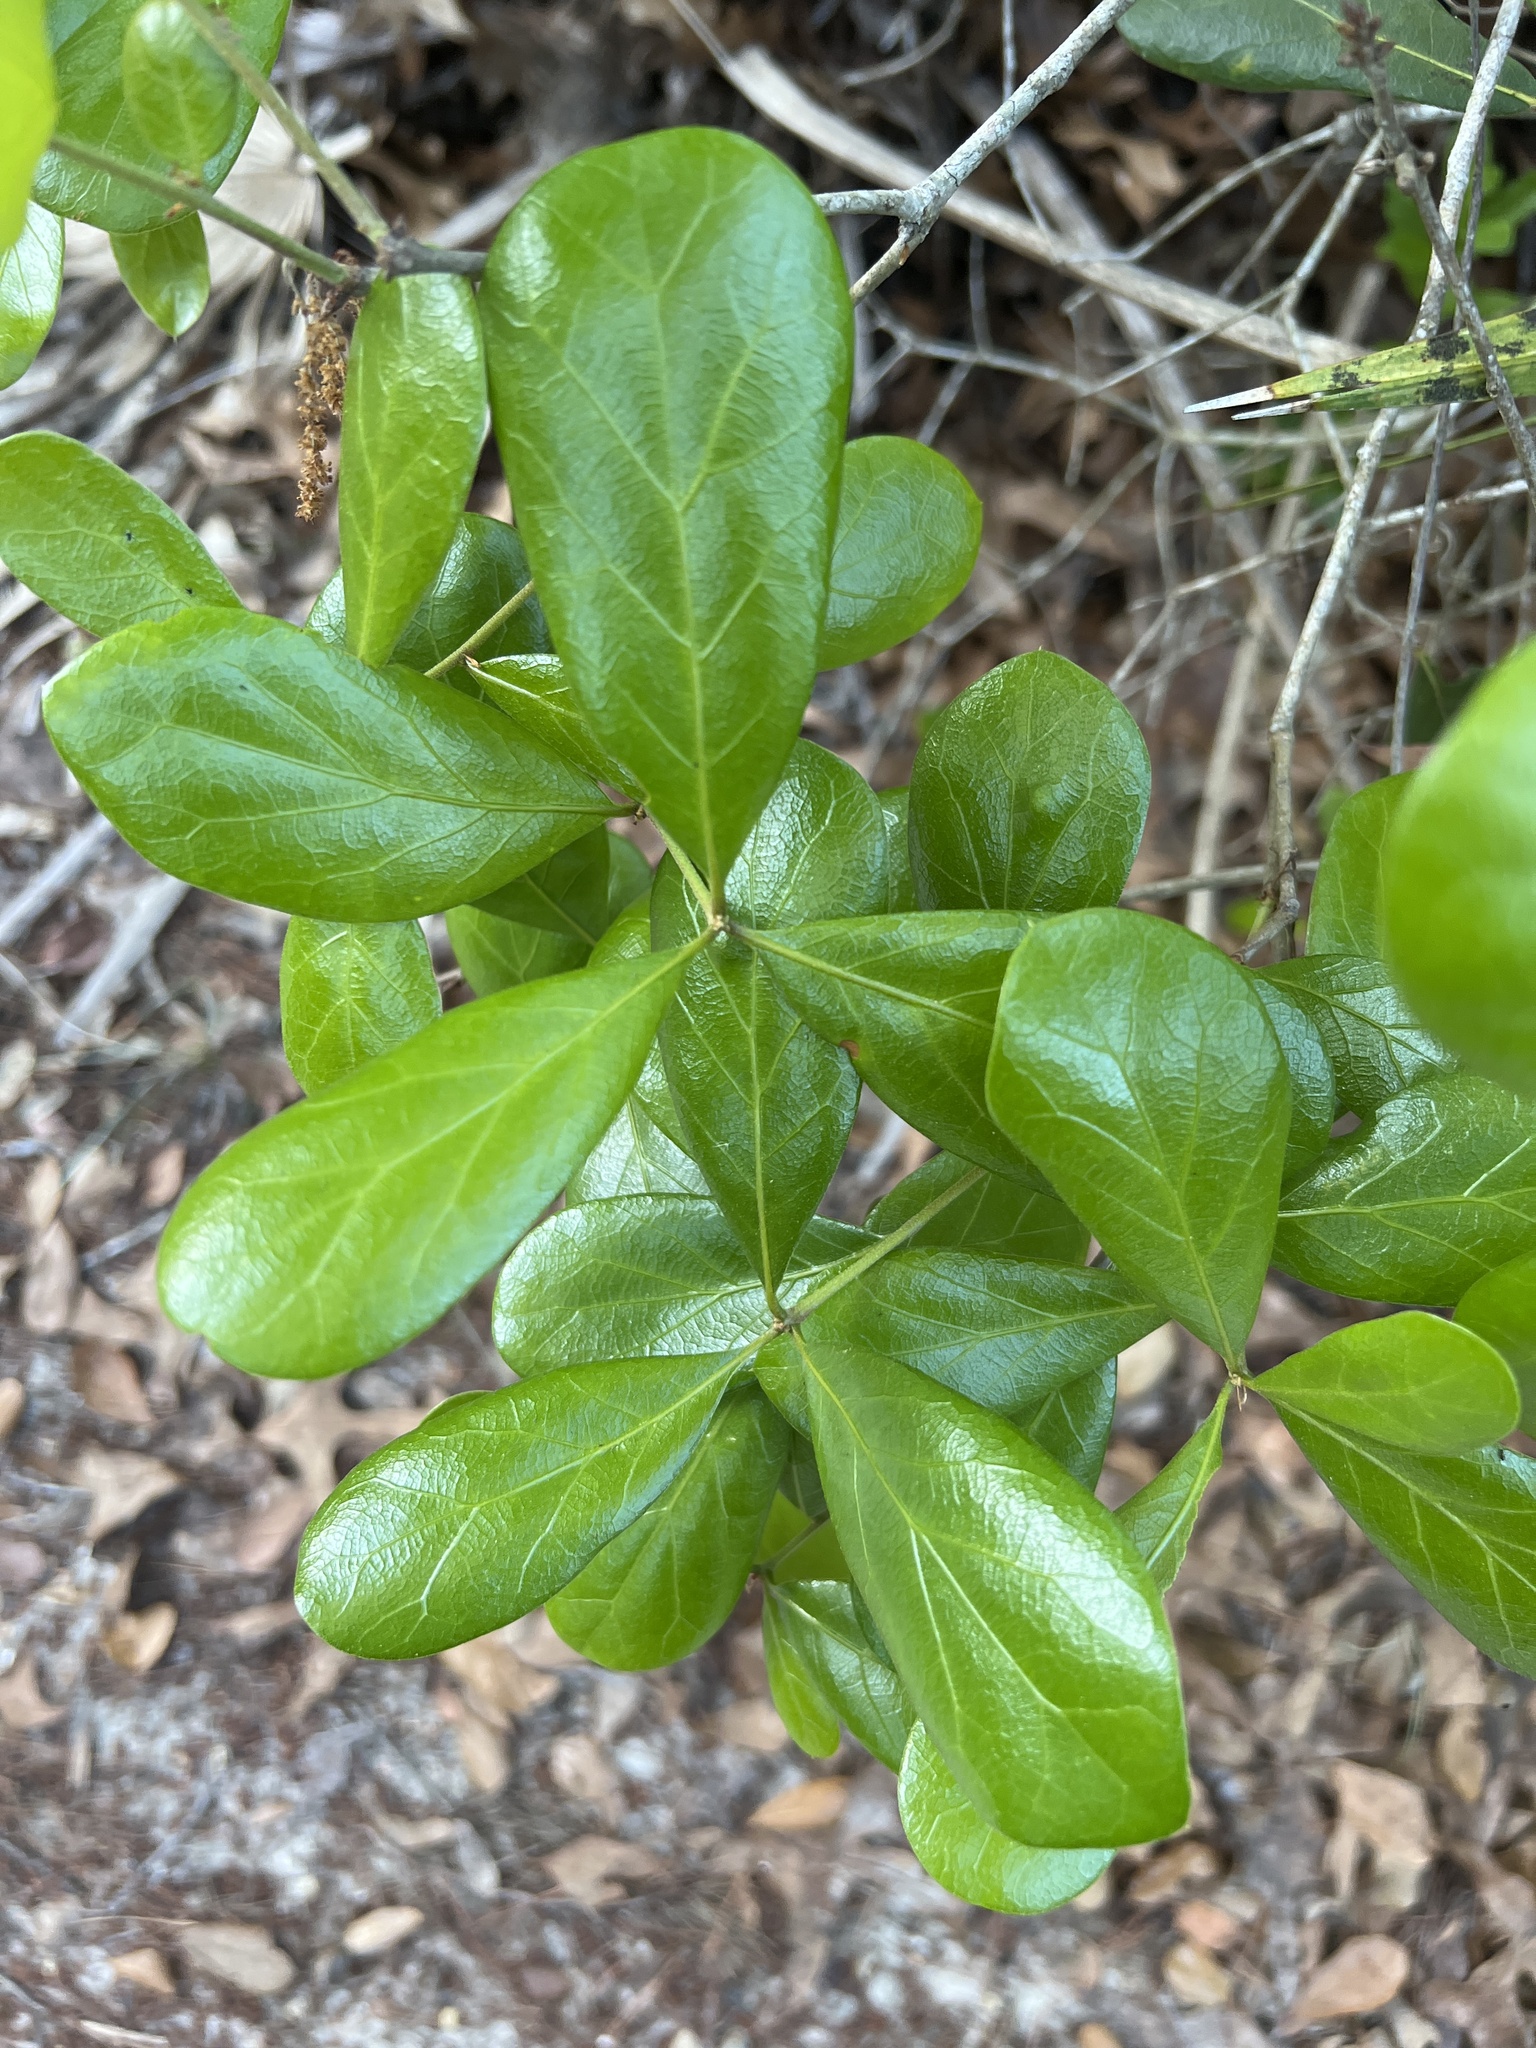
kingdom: Plantae
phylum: Tracheophyta
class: Magnoliopsida
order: Fagales
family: Fagaceae
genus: Quercus
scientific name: Quercus myrtifolia
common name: Myrtle oak
